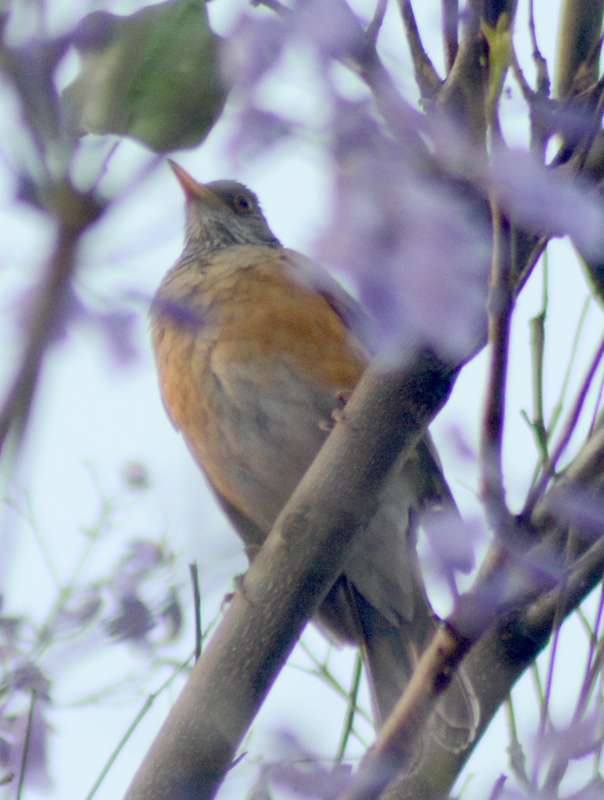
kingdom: Animalia
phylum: Chordata
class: Aves
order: Passeriformes
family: Turdidae
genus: Turdus
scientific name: Turdus rufopalliatus
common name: Rufous-backed robin
